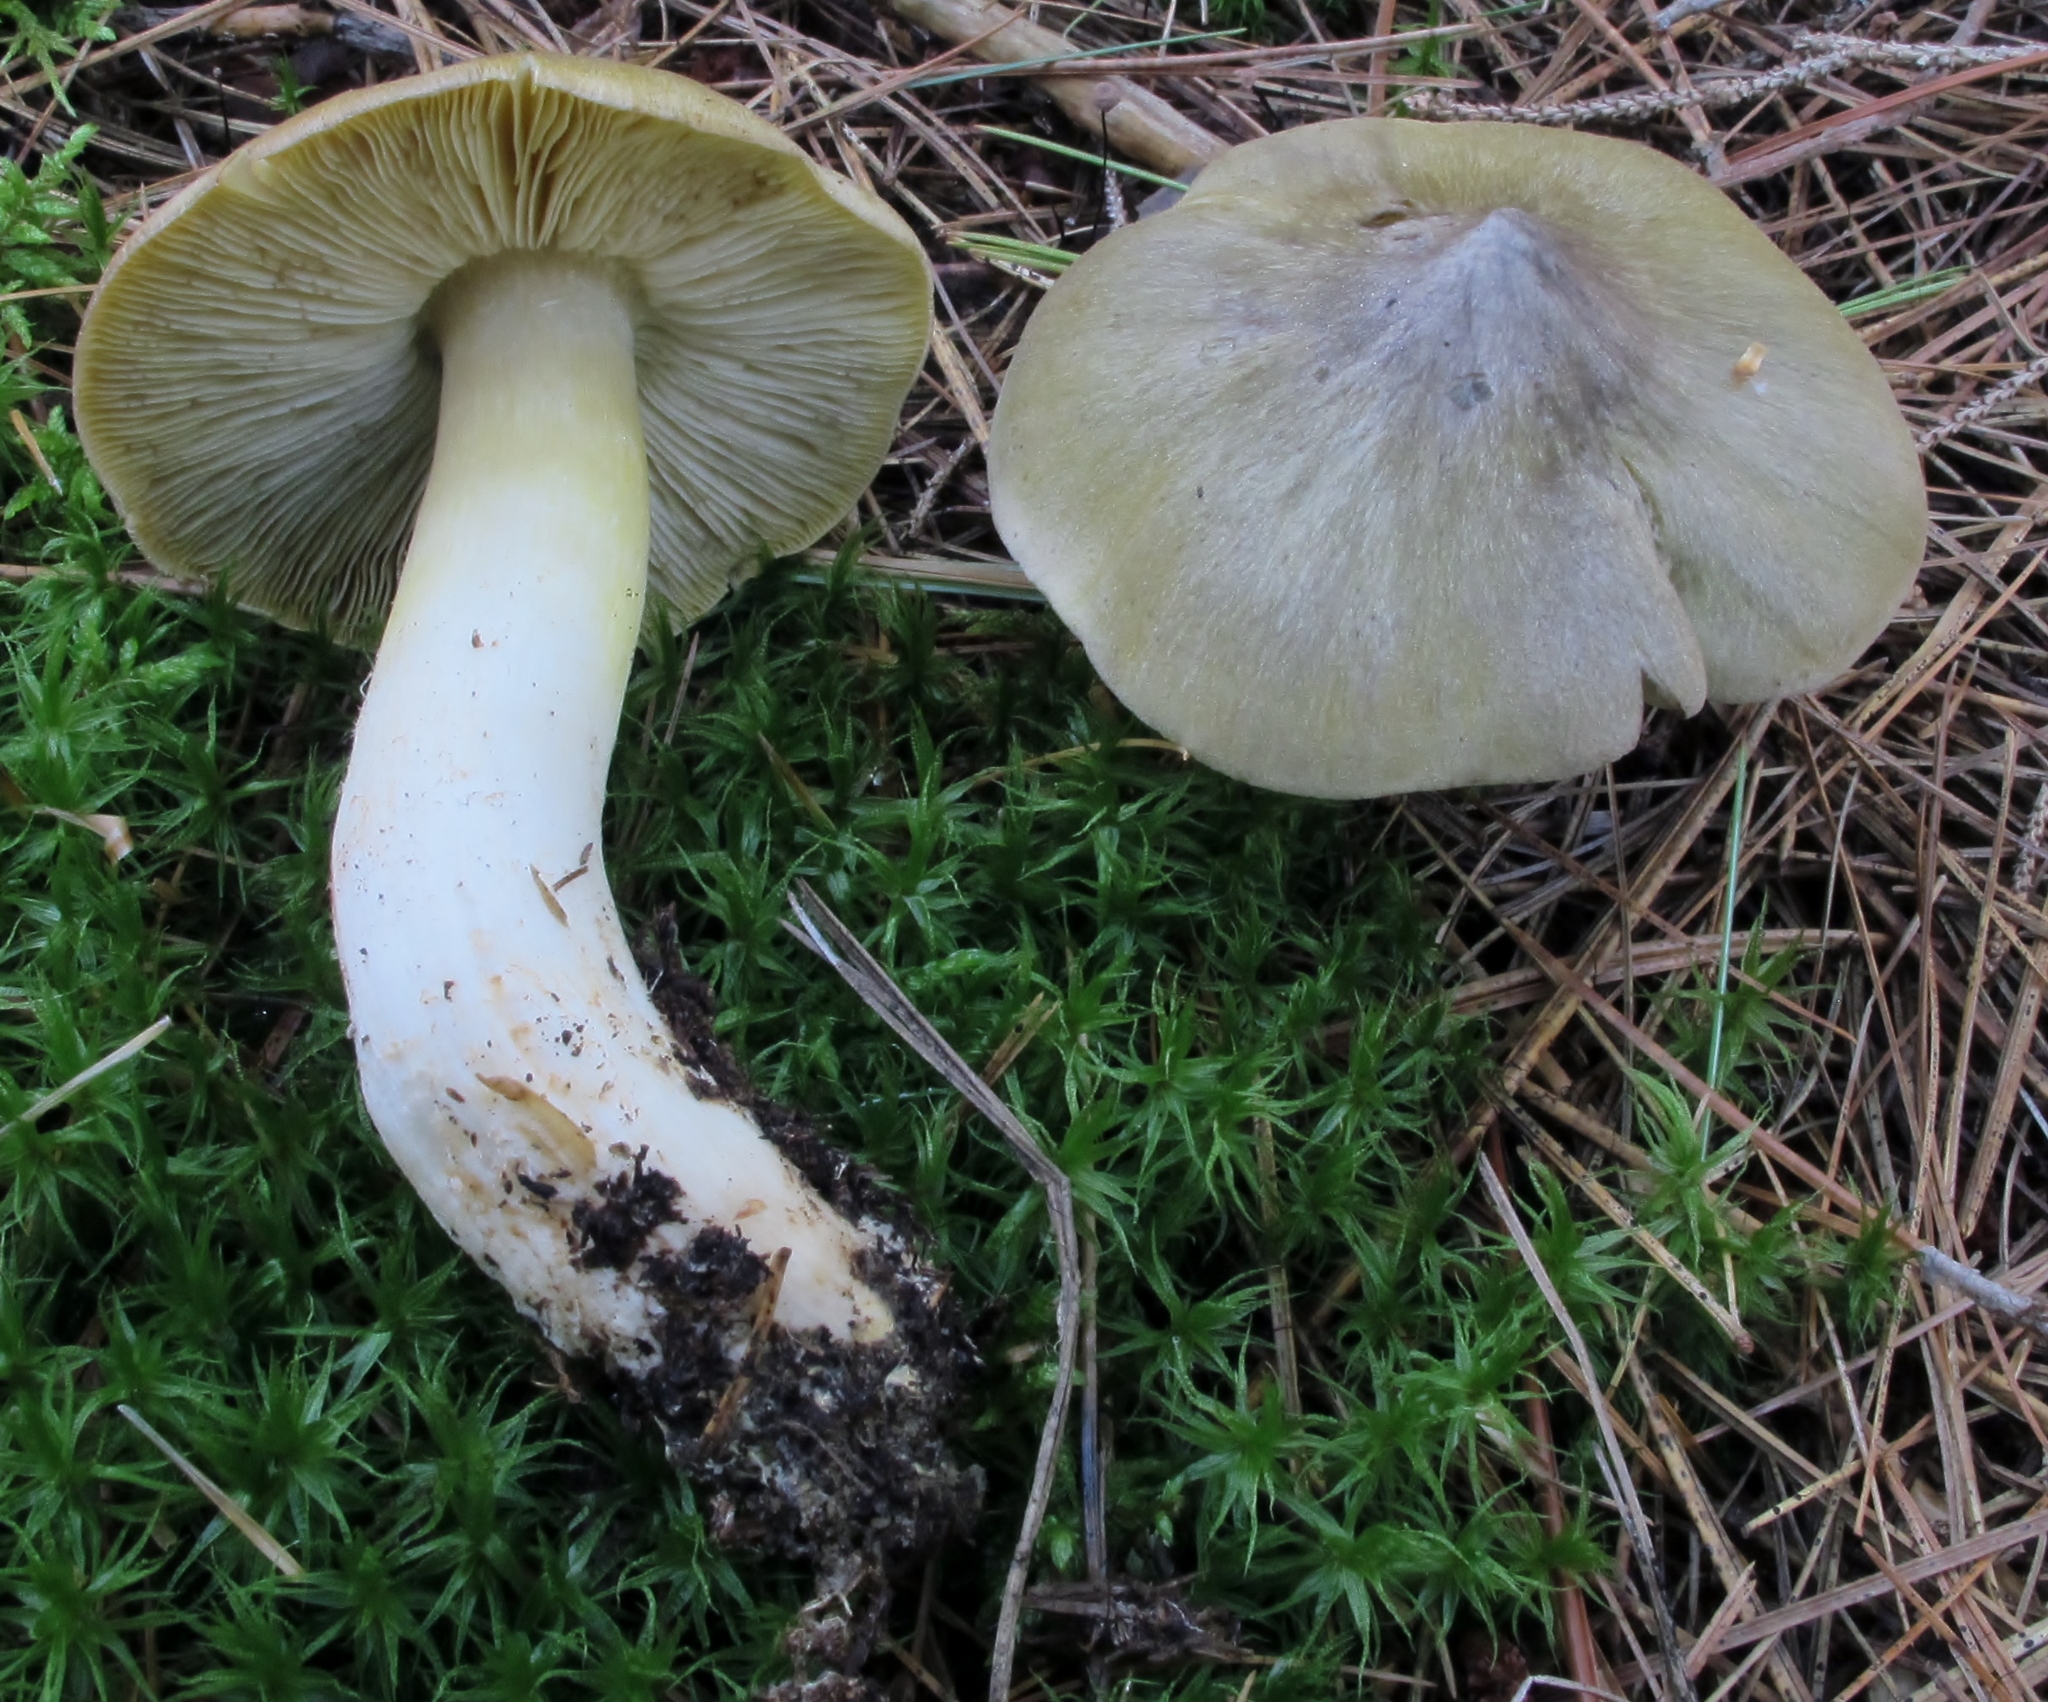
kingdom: Fungi
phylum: Basidiomycota
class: Agaricomycetes
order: Agaricales
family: Tricholomataceae
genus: Melanoleuca
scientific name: Melanoleuca davisiae
